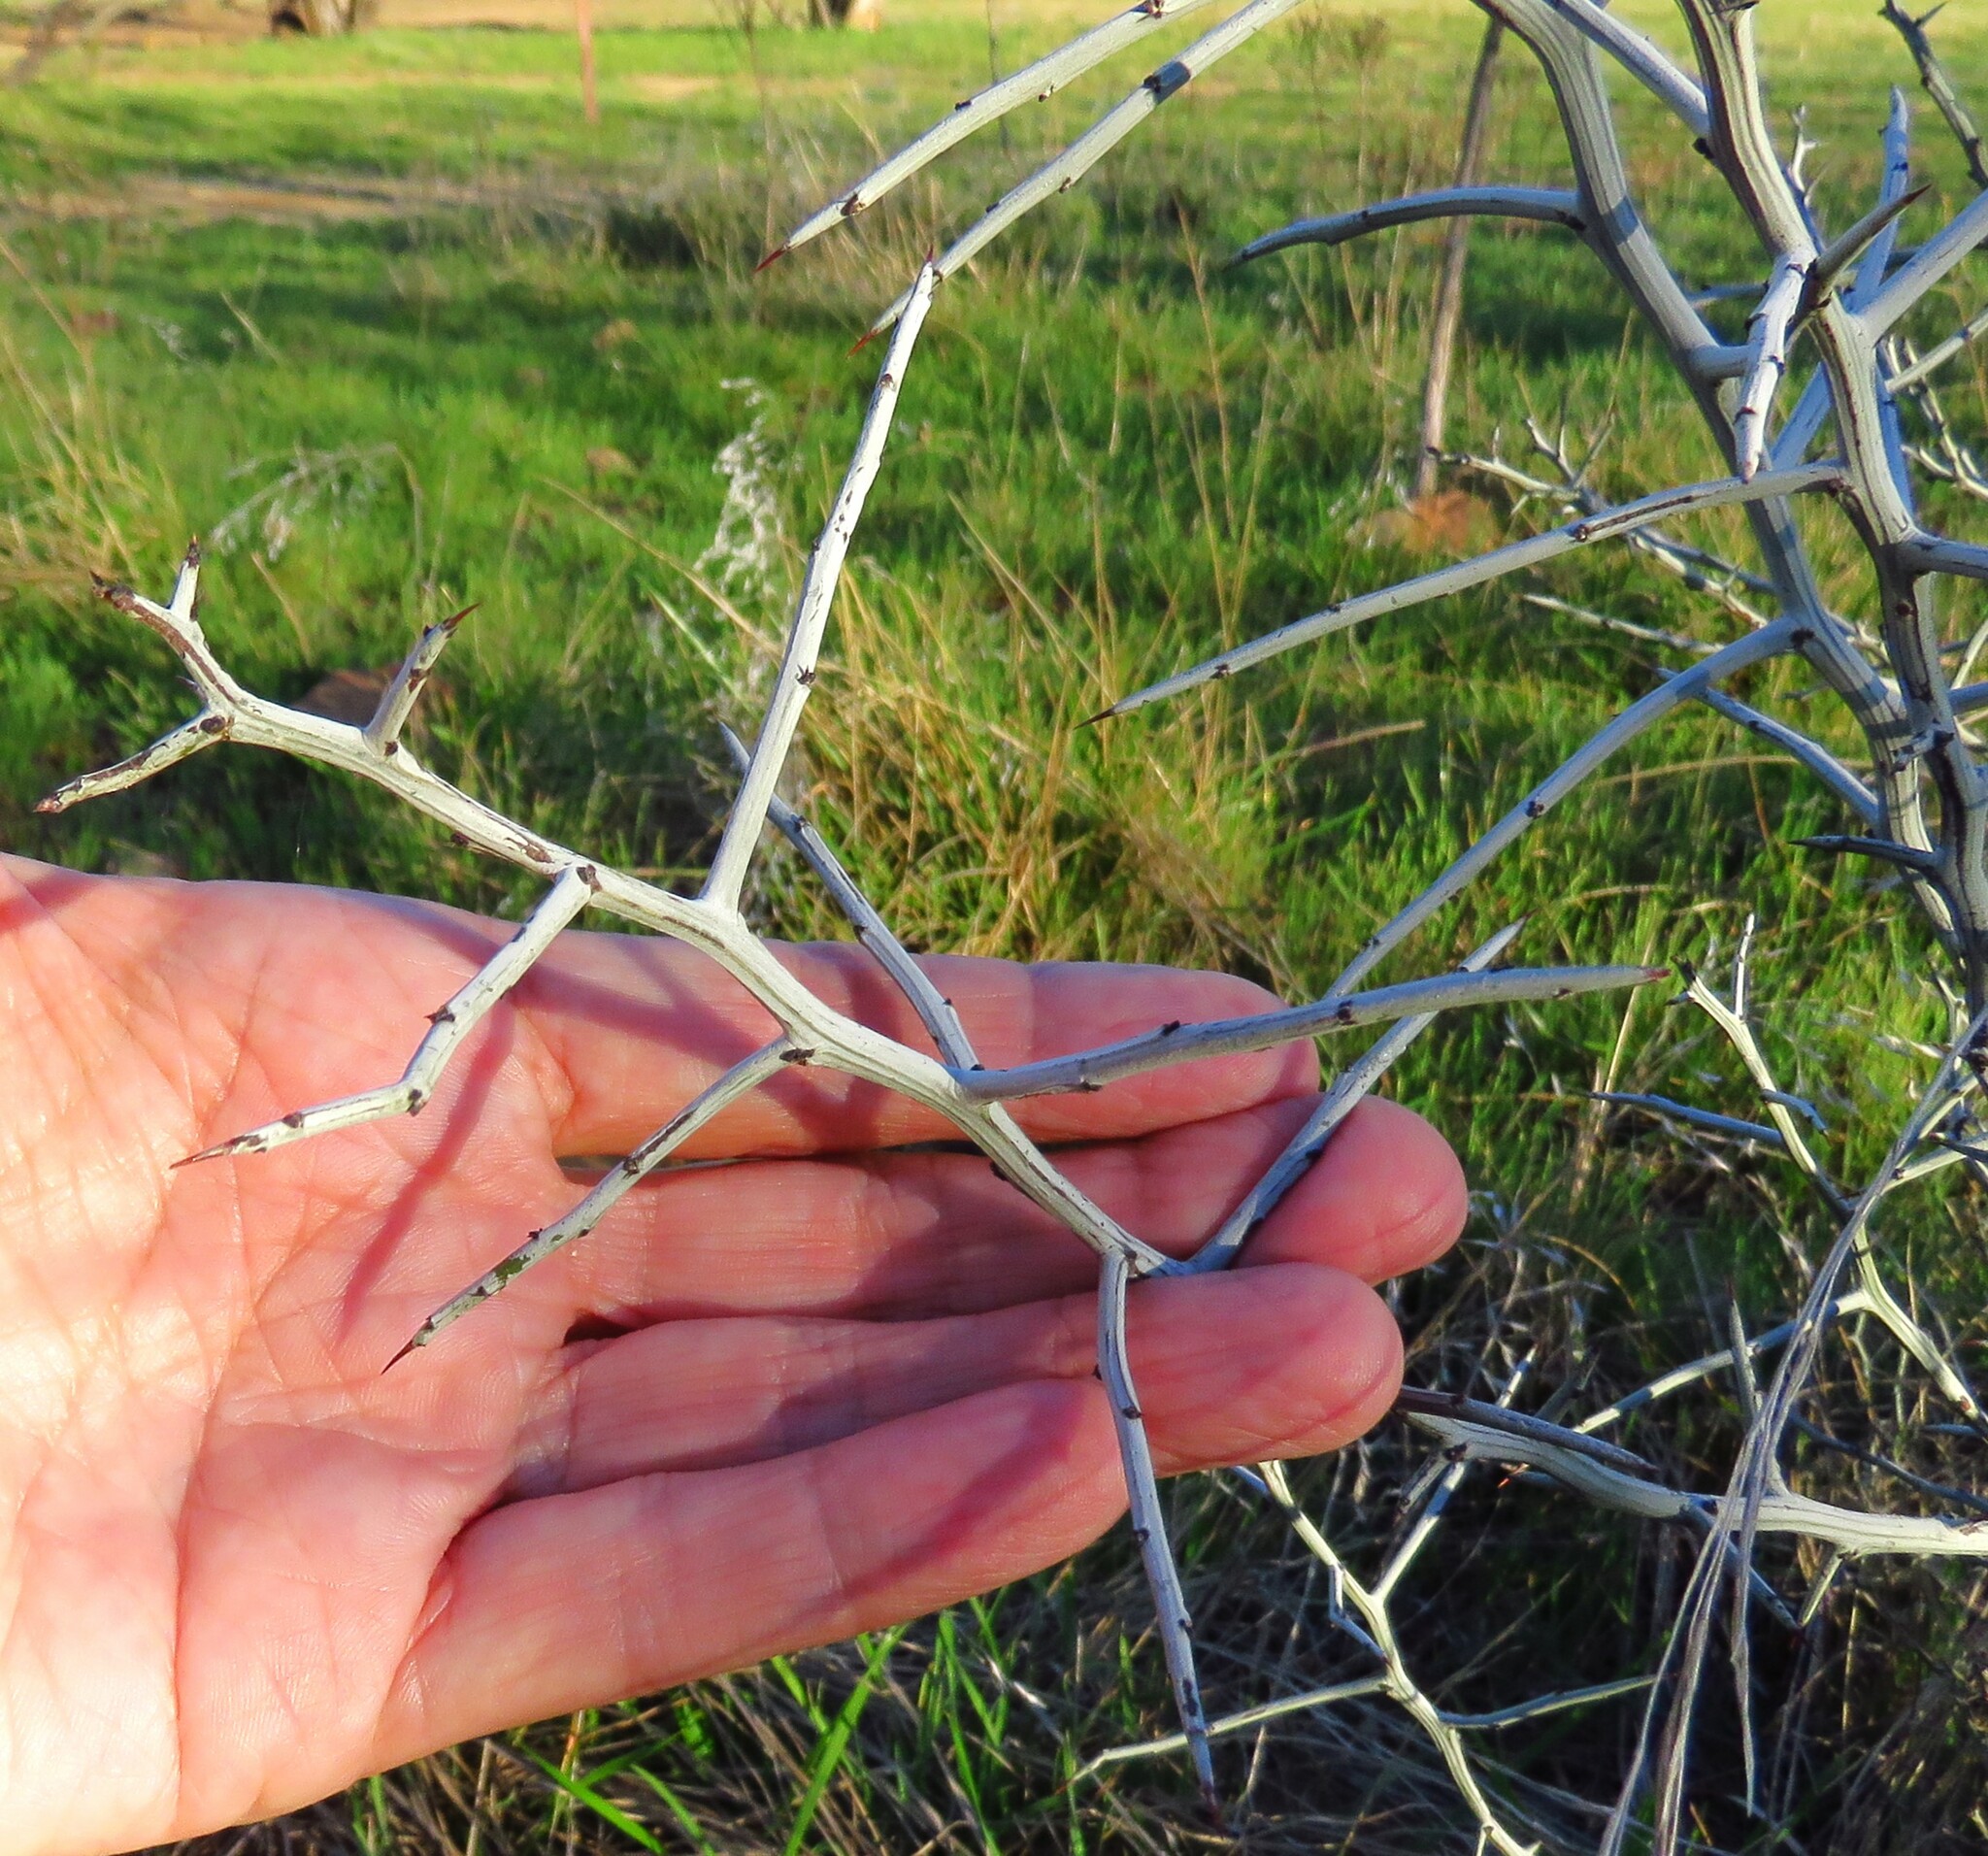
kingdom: Plantae
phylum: Tracheophyta
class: Magnoliopsida
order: Rosales
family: Rhamnaceae
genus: Sarcomphalus
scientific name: Sarcomphalus obtusifolius
